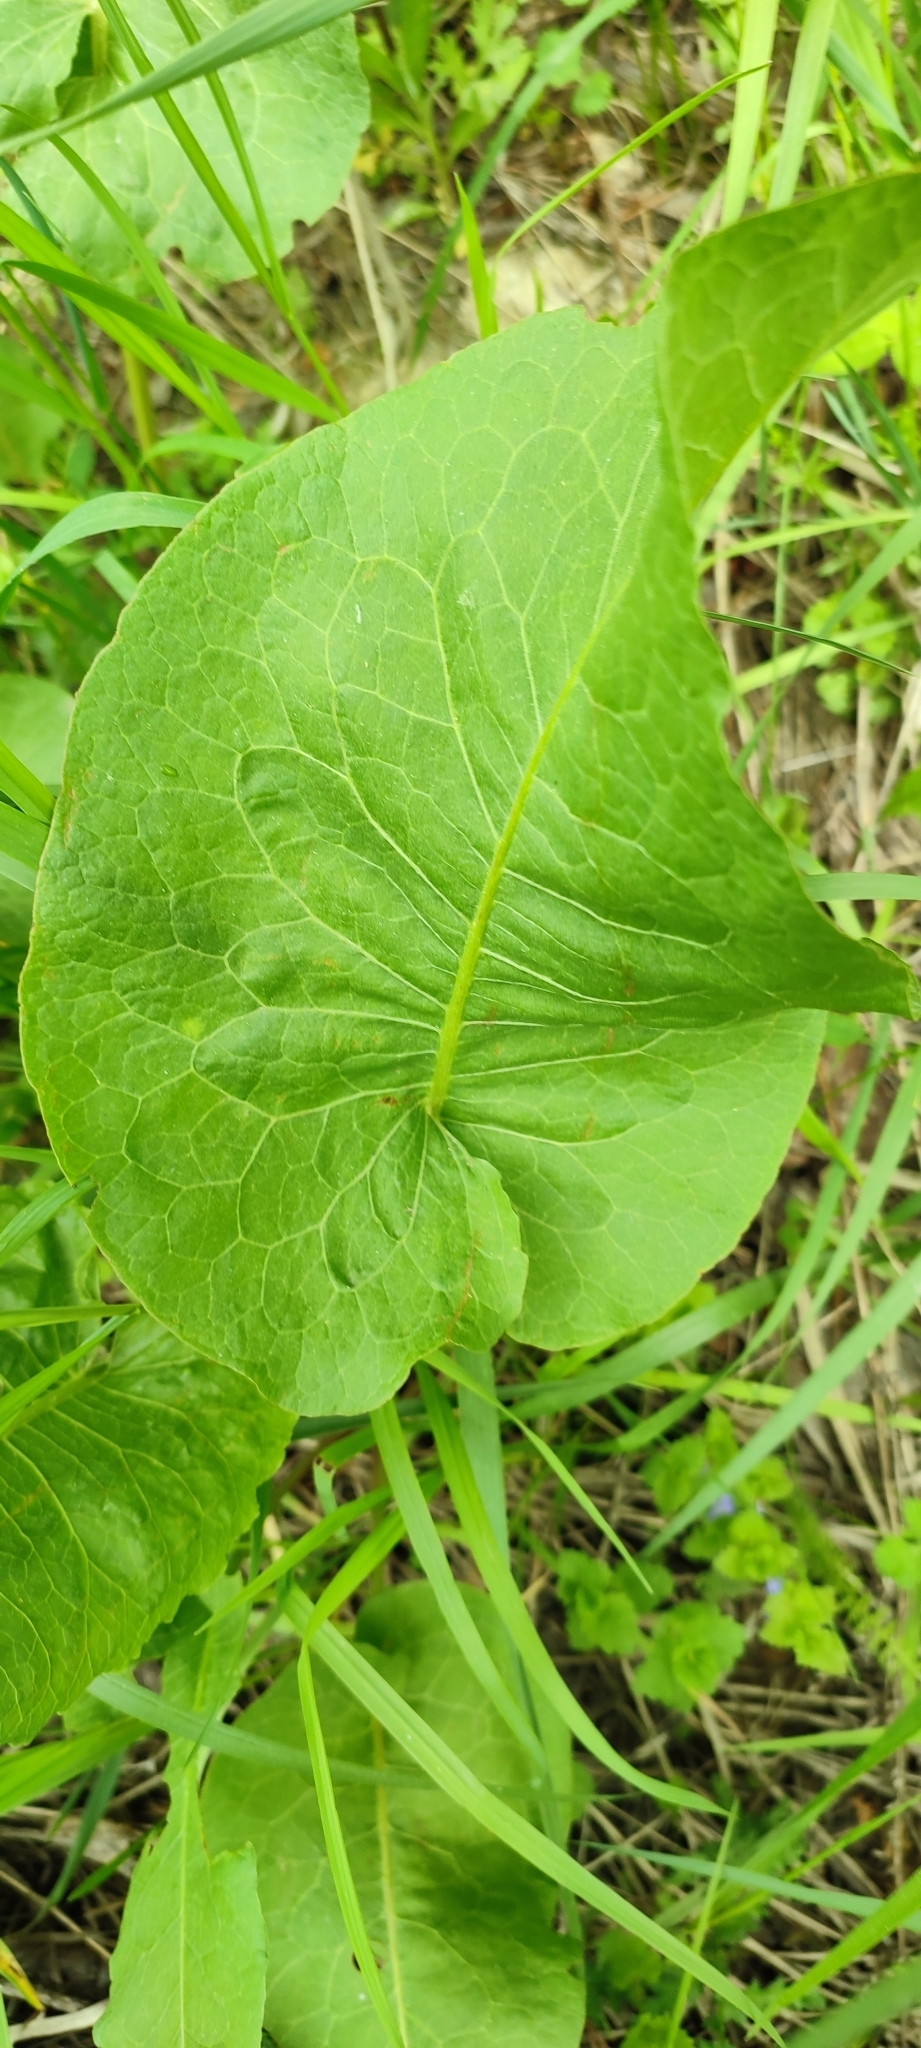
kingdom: Plantae
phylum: Tracheophyta
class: Magnoliopsida
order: Caryophyllales
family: Polygonaceae
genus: Rumex
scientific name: Rumex confertus
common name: Russian dock
